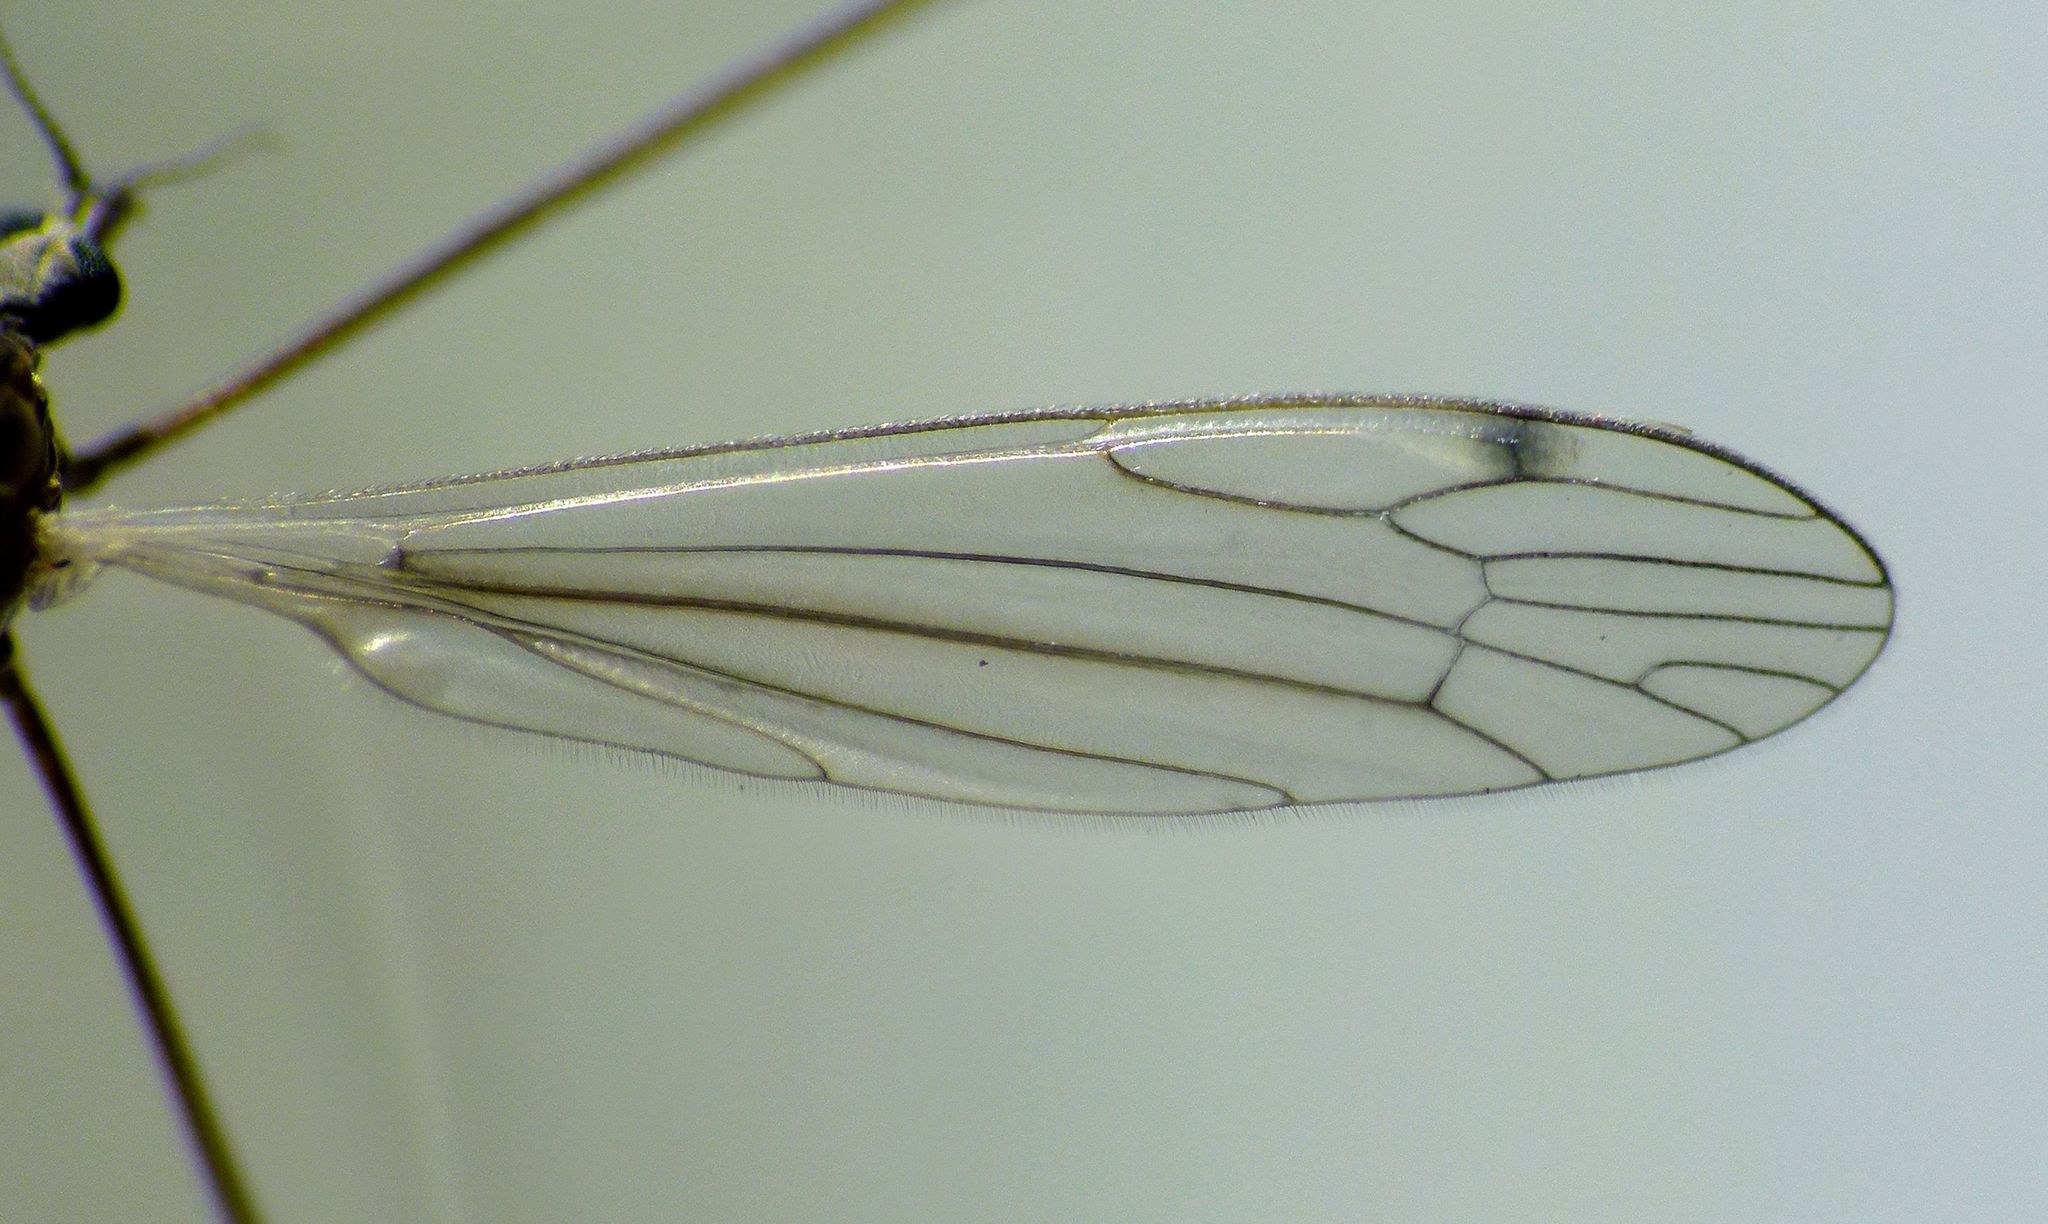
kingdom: Animalia
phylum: Arthropoda
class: Insecta
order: Diptera
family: Limoniidae
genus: Dicranomyia
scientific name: Dicranomyia aegrotans
